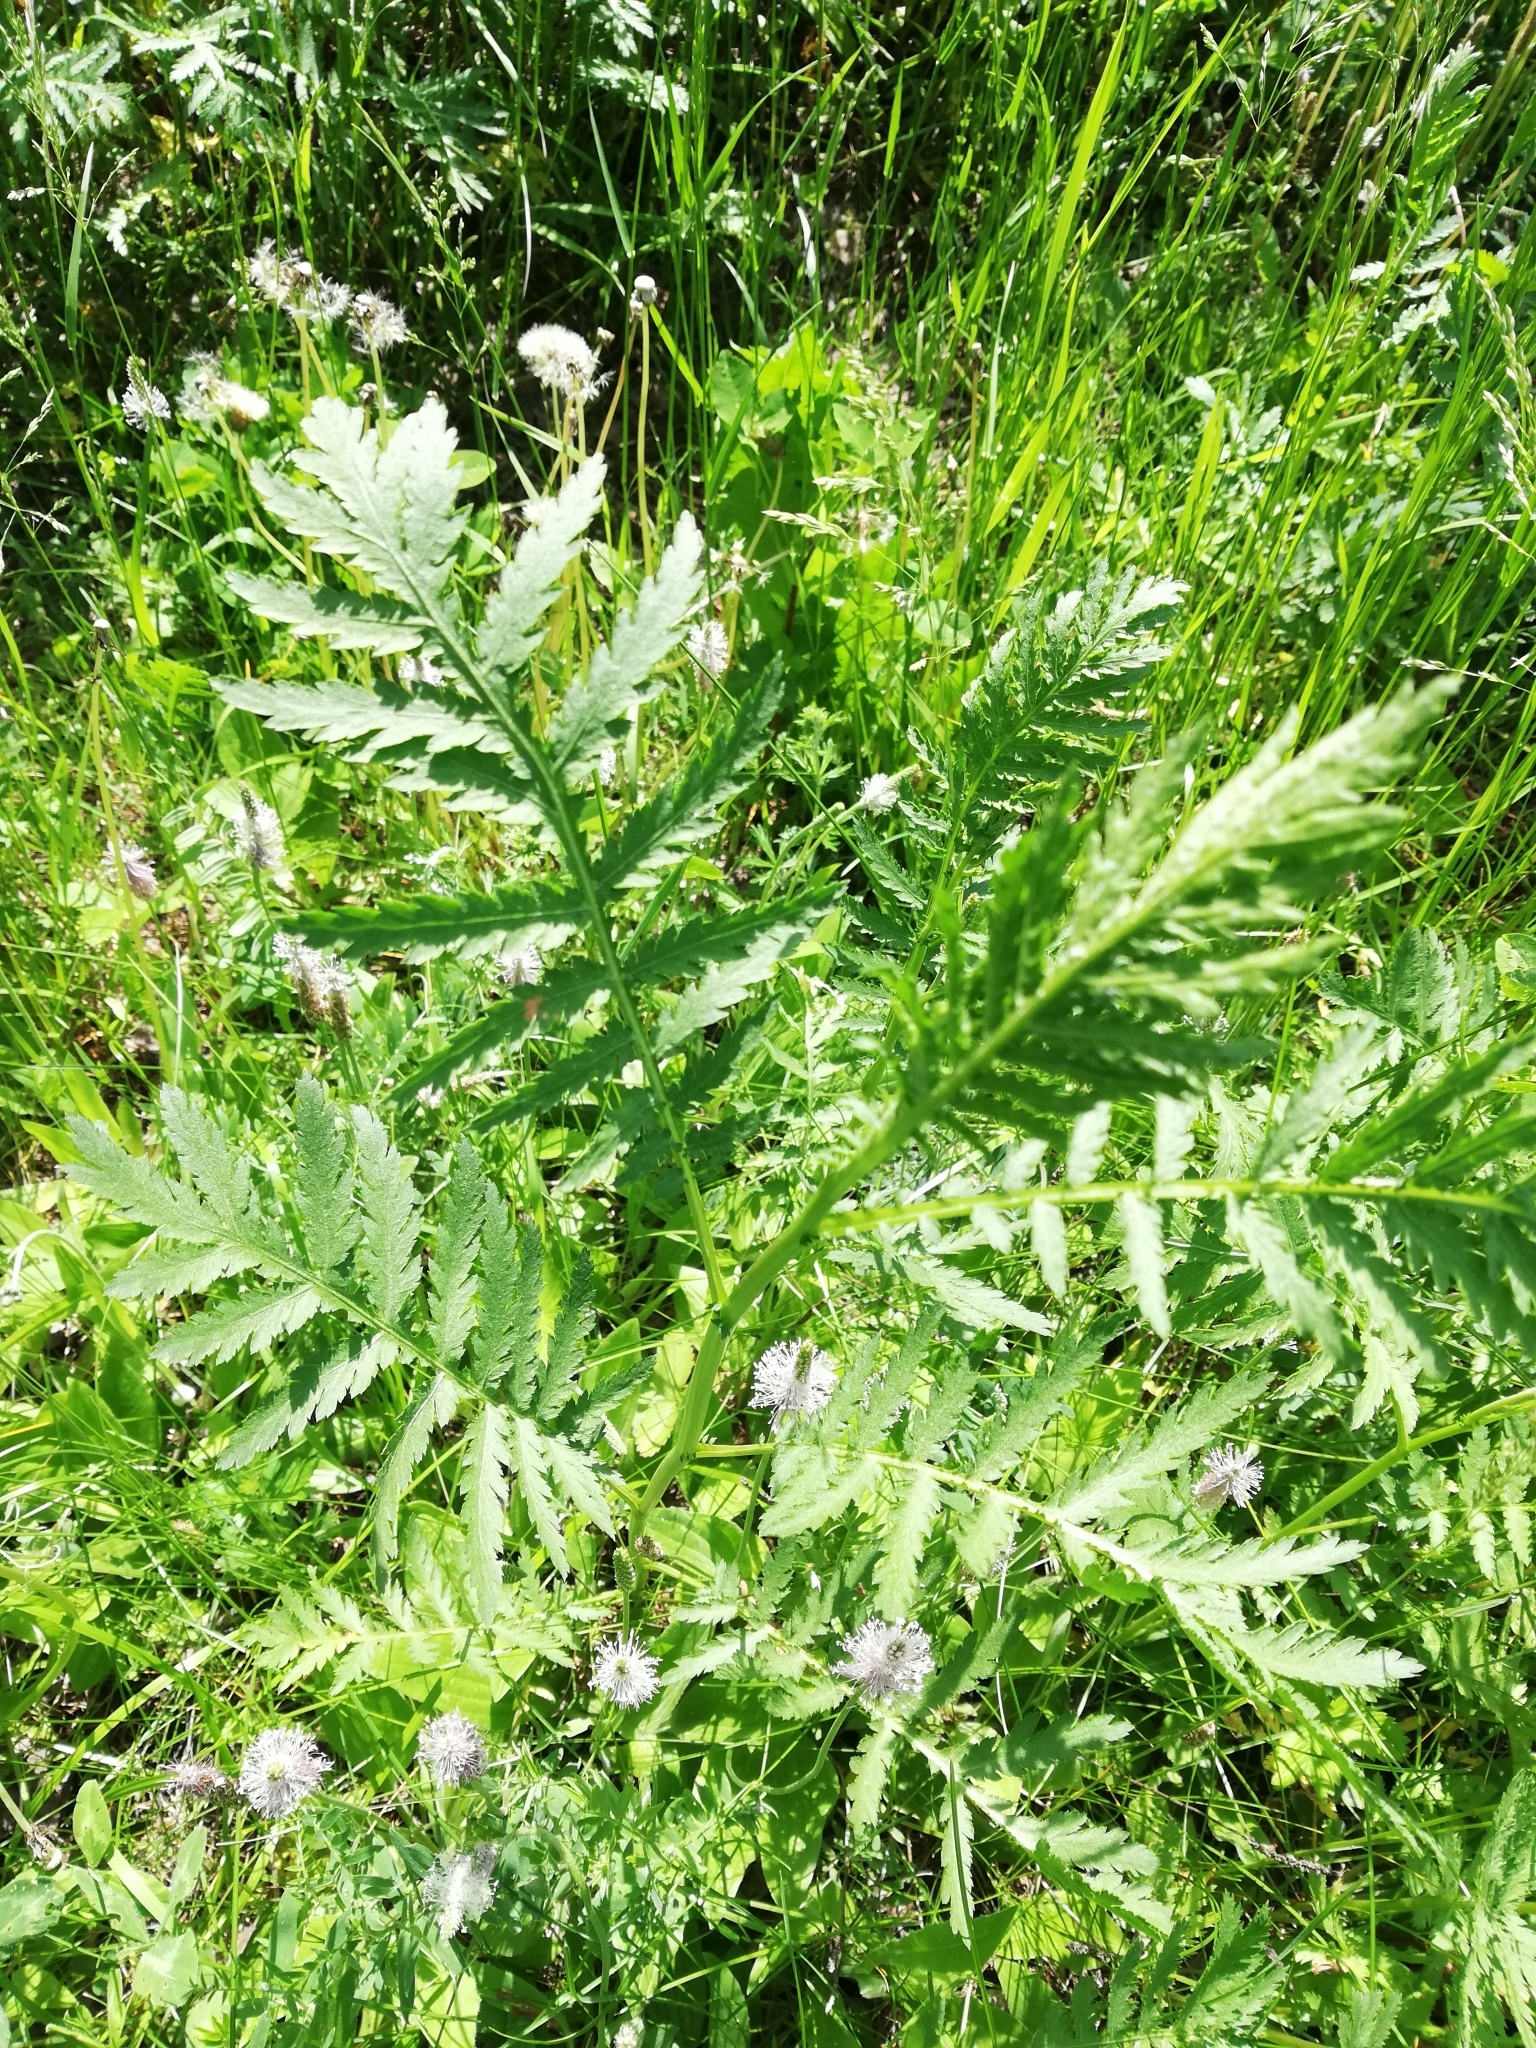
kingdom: Plantae
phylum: Tracheophyta
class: Magnoliopsida
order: Asterales
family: Asteraceae
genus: Tanacetum
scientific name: Tanacetum vulgare
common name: Common tansy
